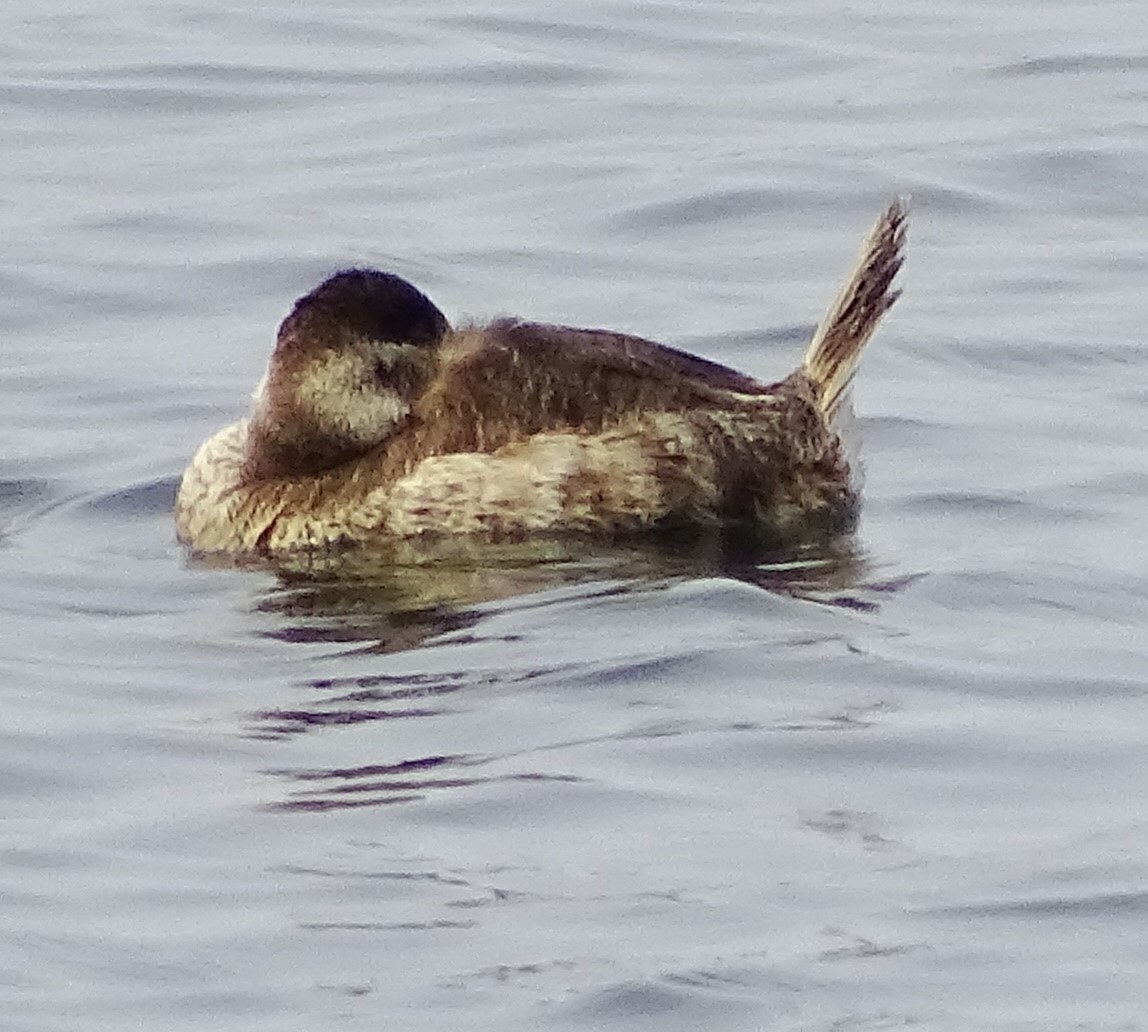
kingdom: Animalia
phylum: Chordata
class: Aves
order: Anseriformes
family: Anatidae
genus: Oxyura
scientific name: Oxyura jamaicensis
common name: Ruddy duck
